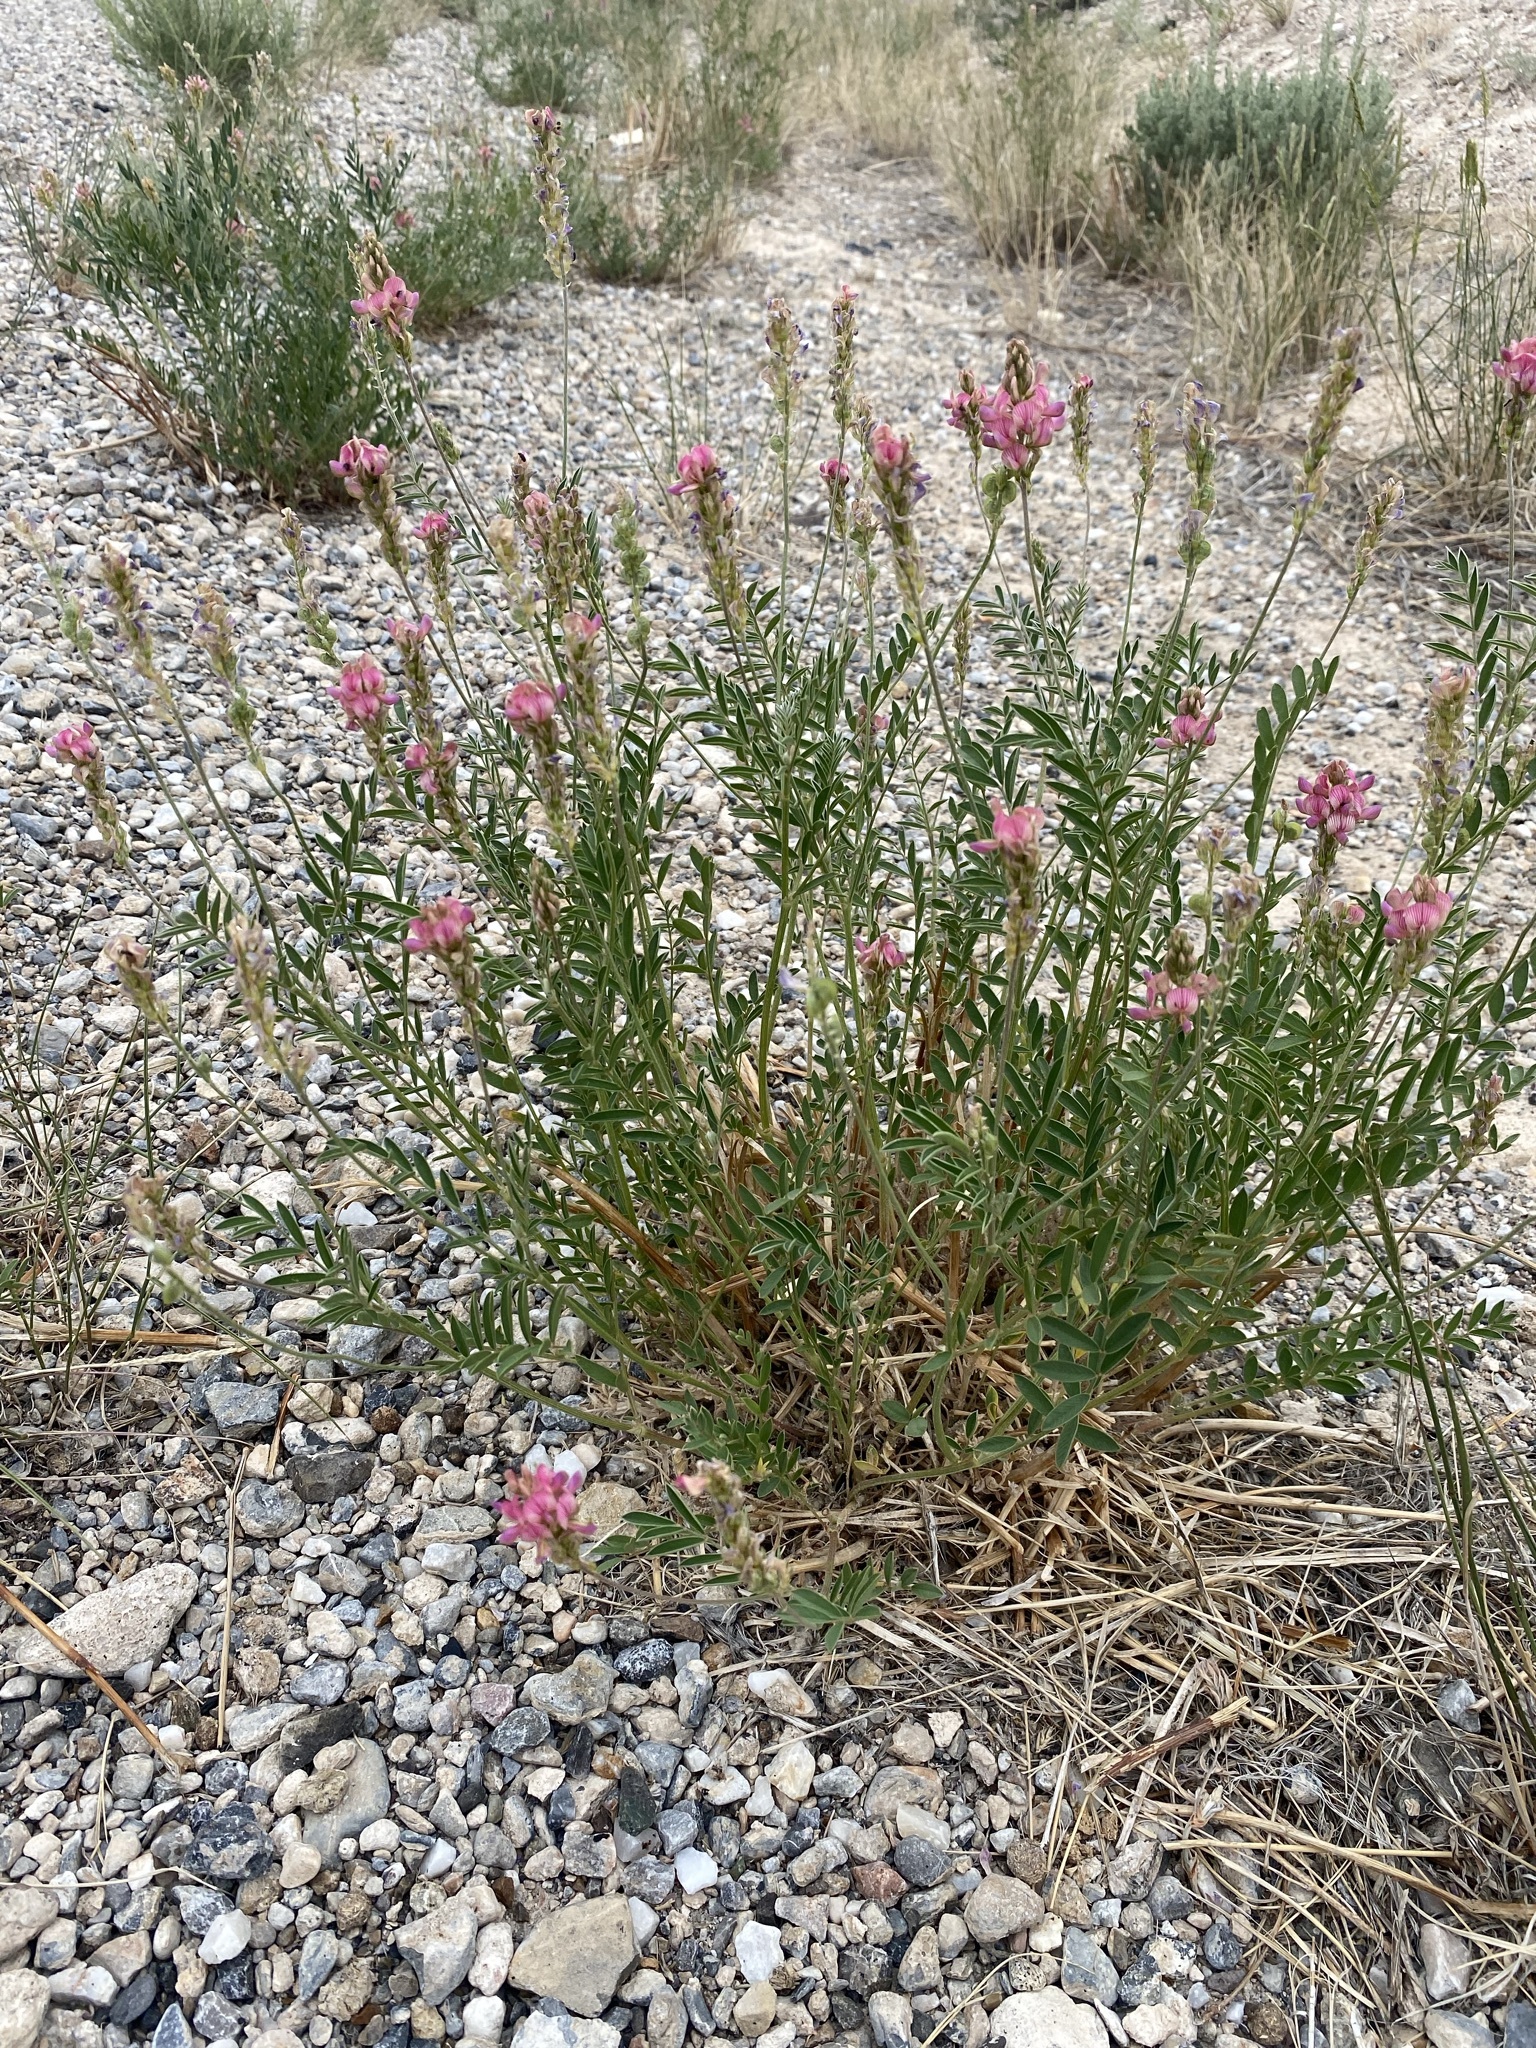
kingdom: Plantae
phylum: Tracheophyta
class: Magnoliopsida
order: Fabales
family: Fabaceae
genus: Onobrychis
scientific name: Onobrychis viciifolia
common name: Sainfoin
